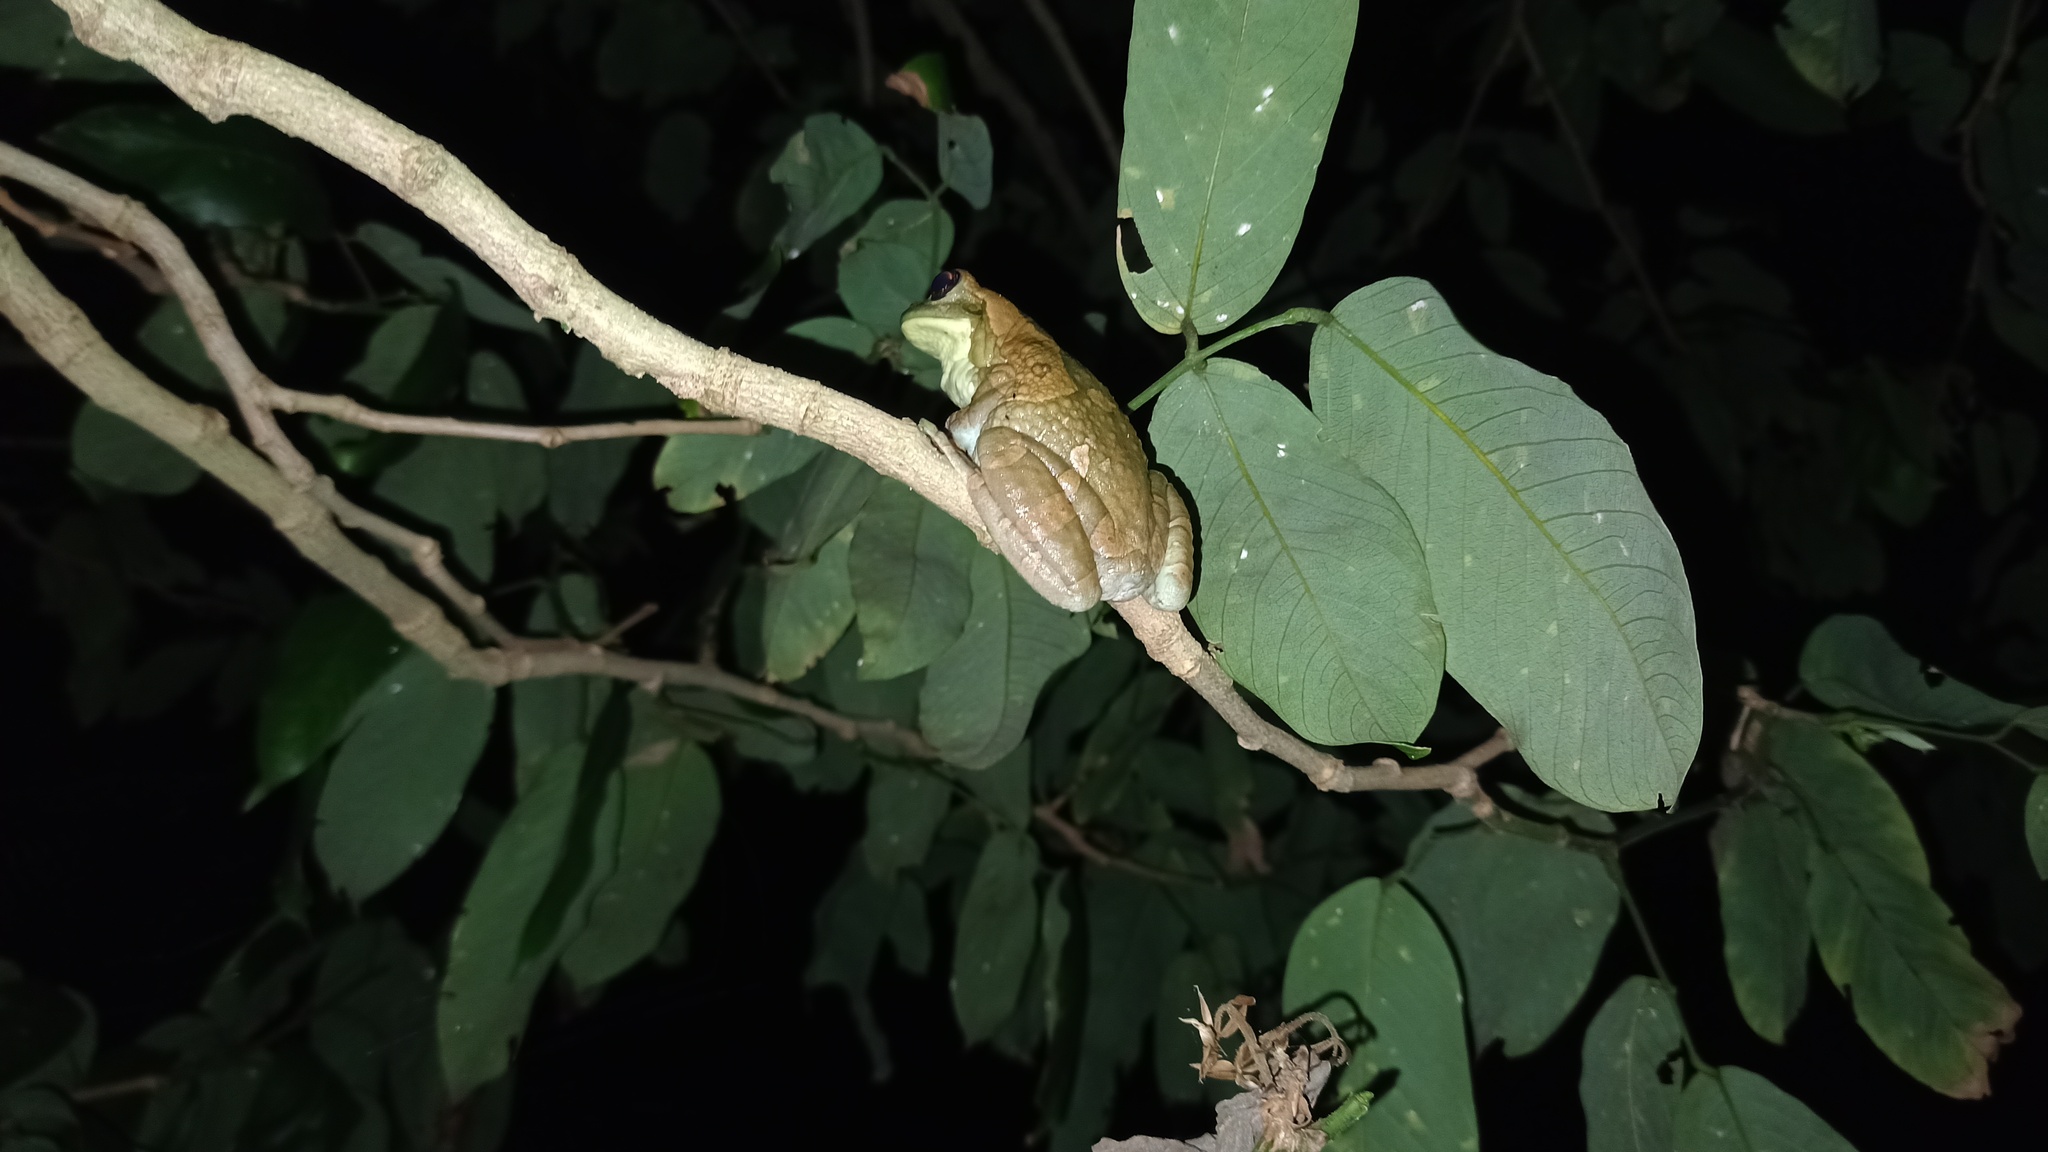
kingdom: Animalia
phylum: Chordata
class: Amphibia
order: Anura
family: Hylidae
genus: Trachycephalus
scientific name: Trachycephalus typhonius
